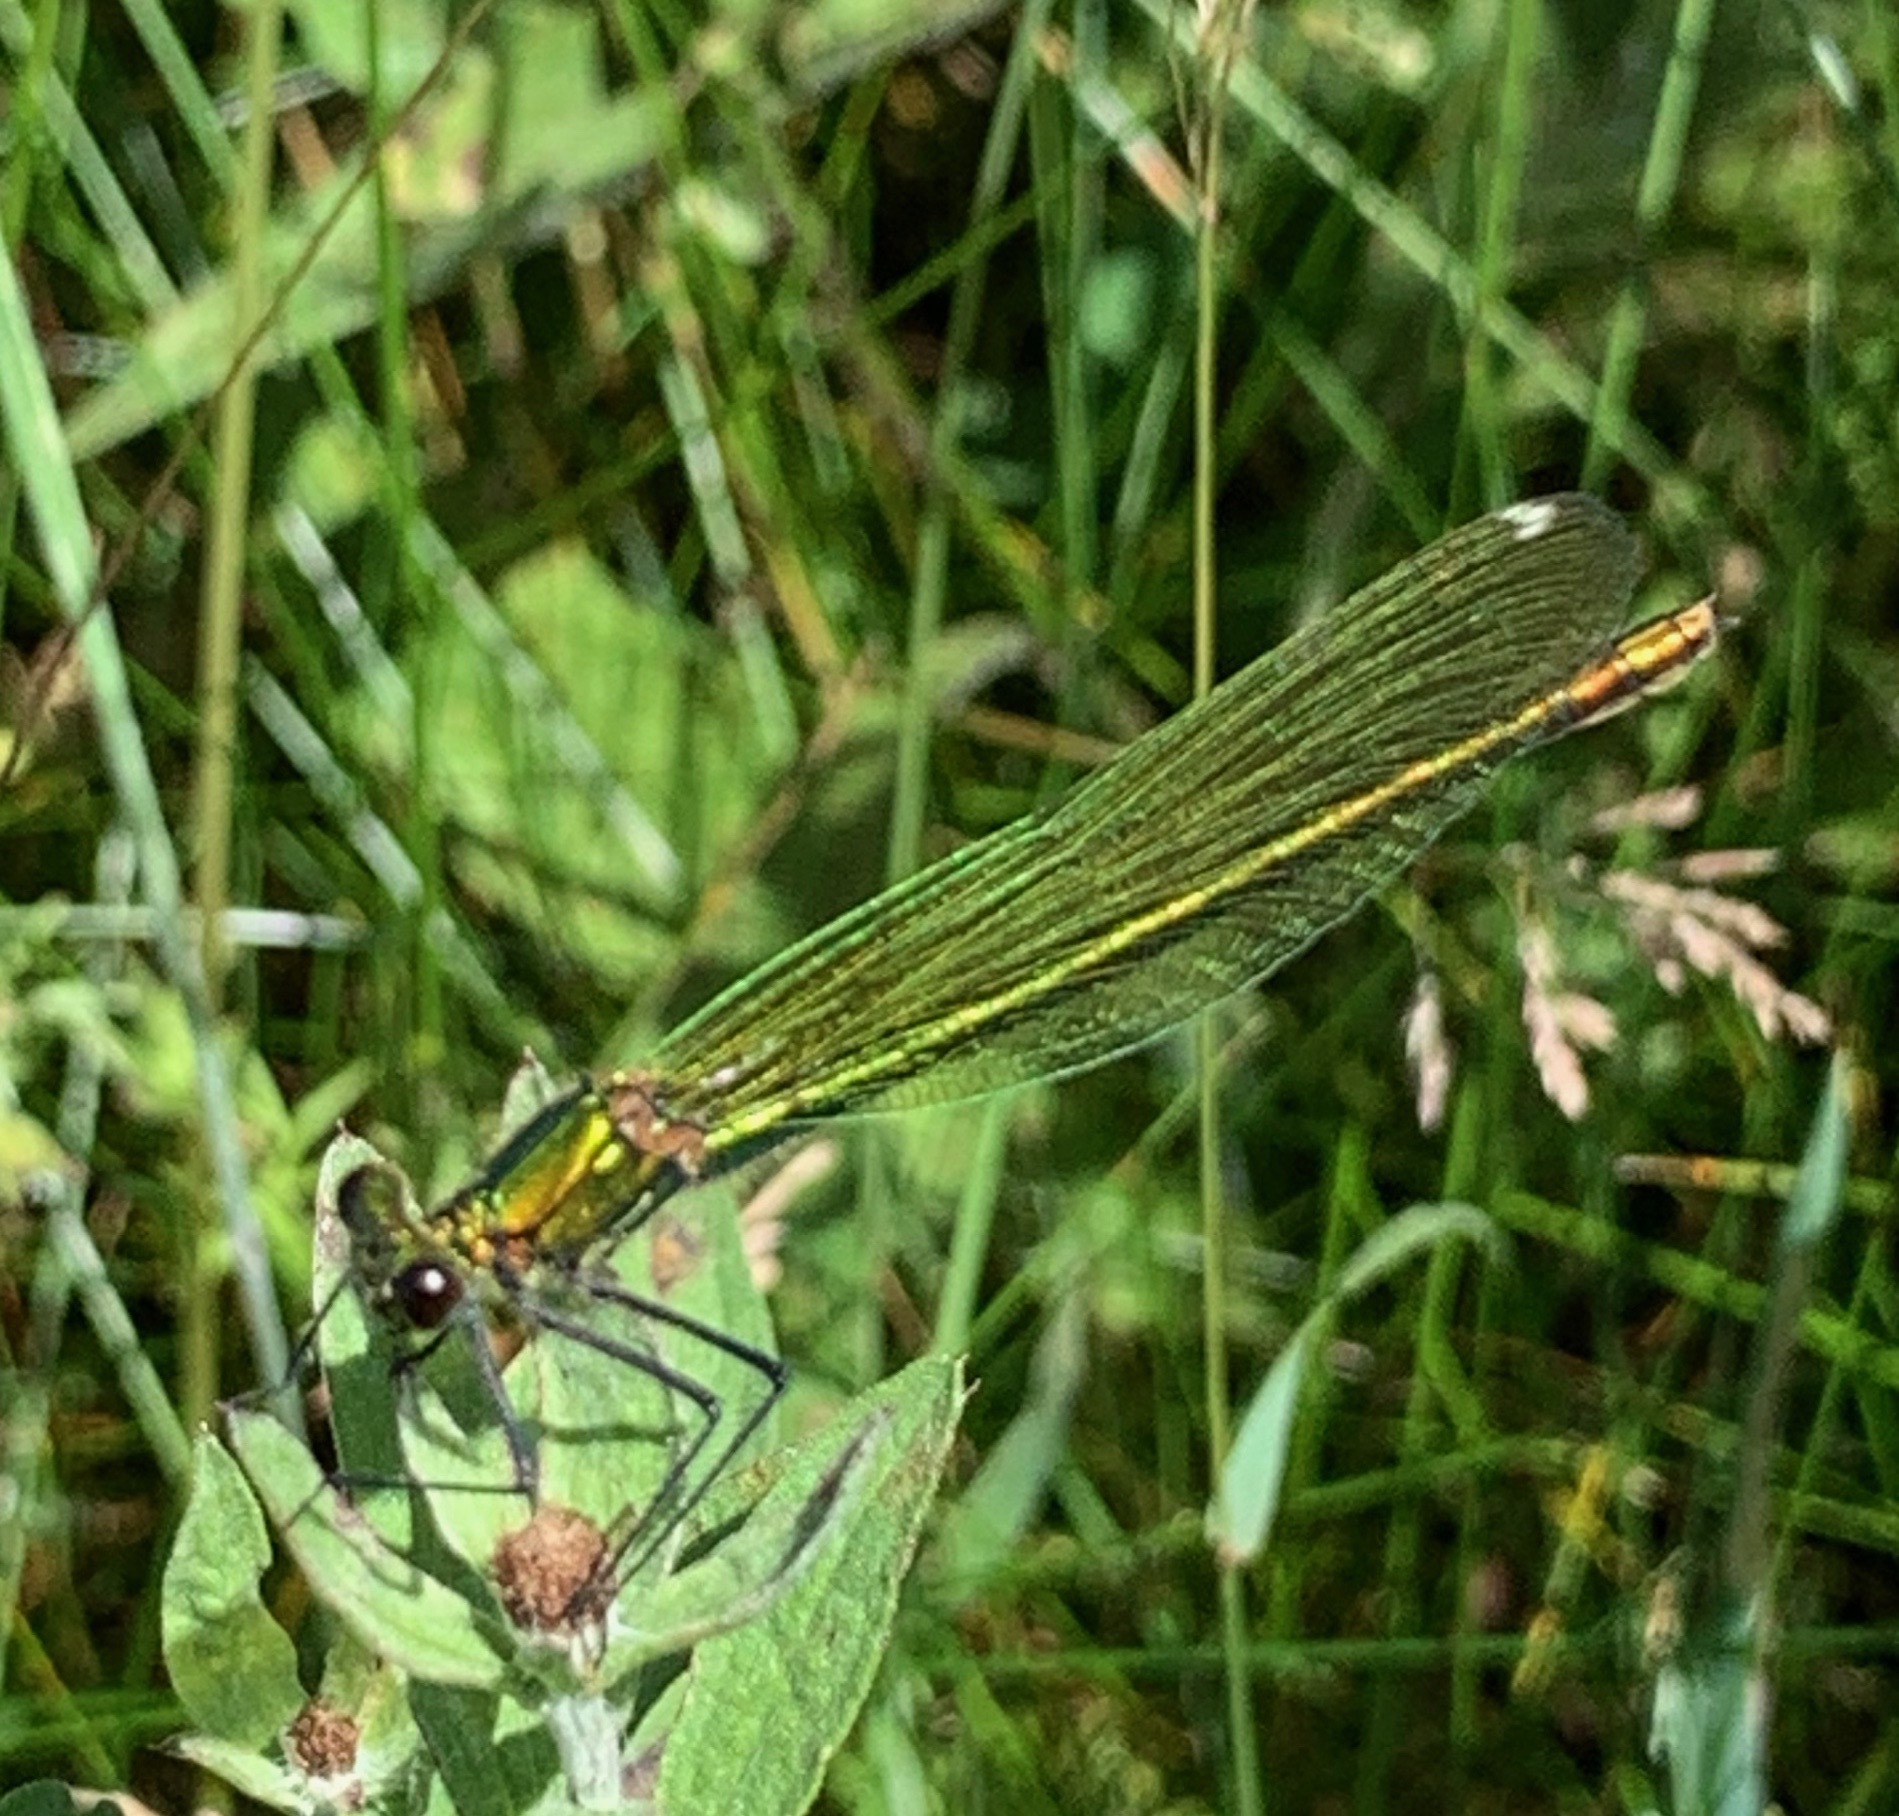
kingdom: Animalia
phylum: Arthropoda
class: Insecta
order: Odonata
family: Calopterygidae
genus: Calopteryx
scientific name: Calopteryx splendens
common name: Banded demoiselle
